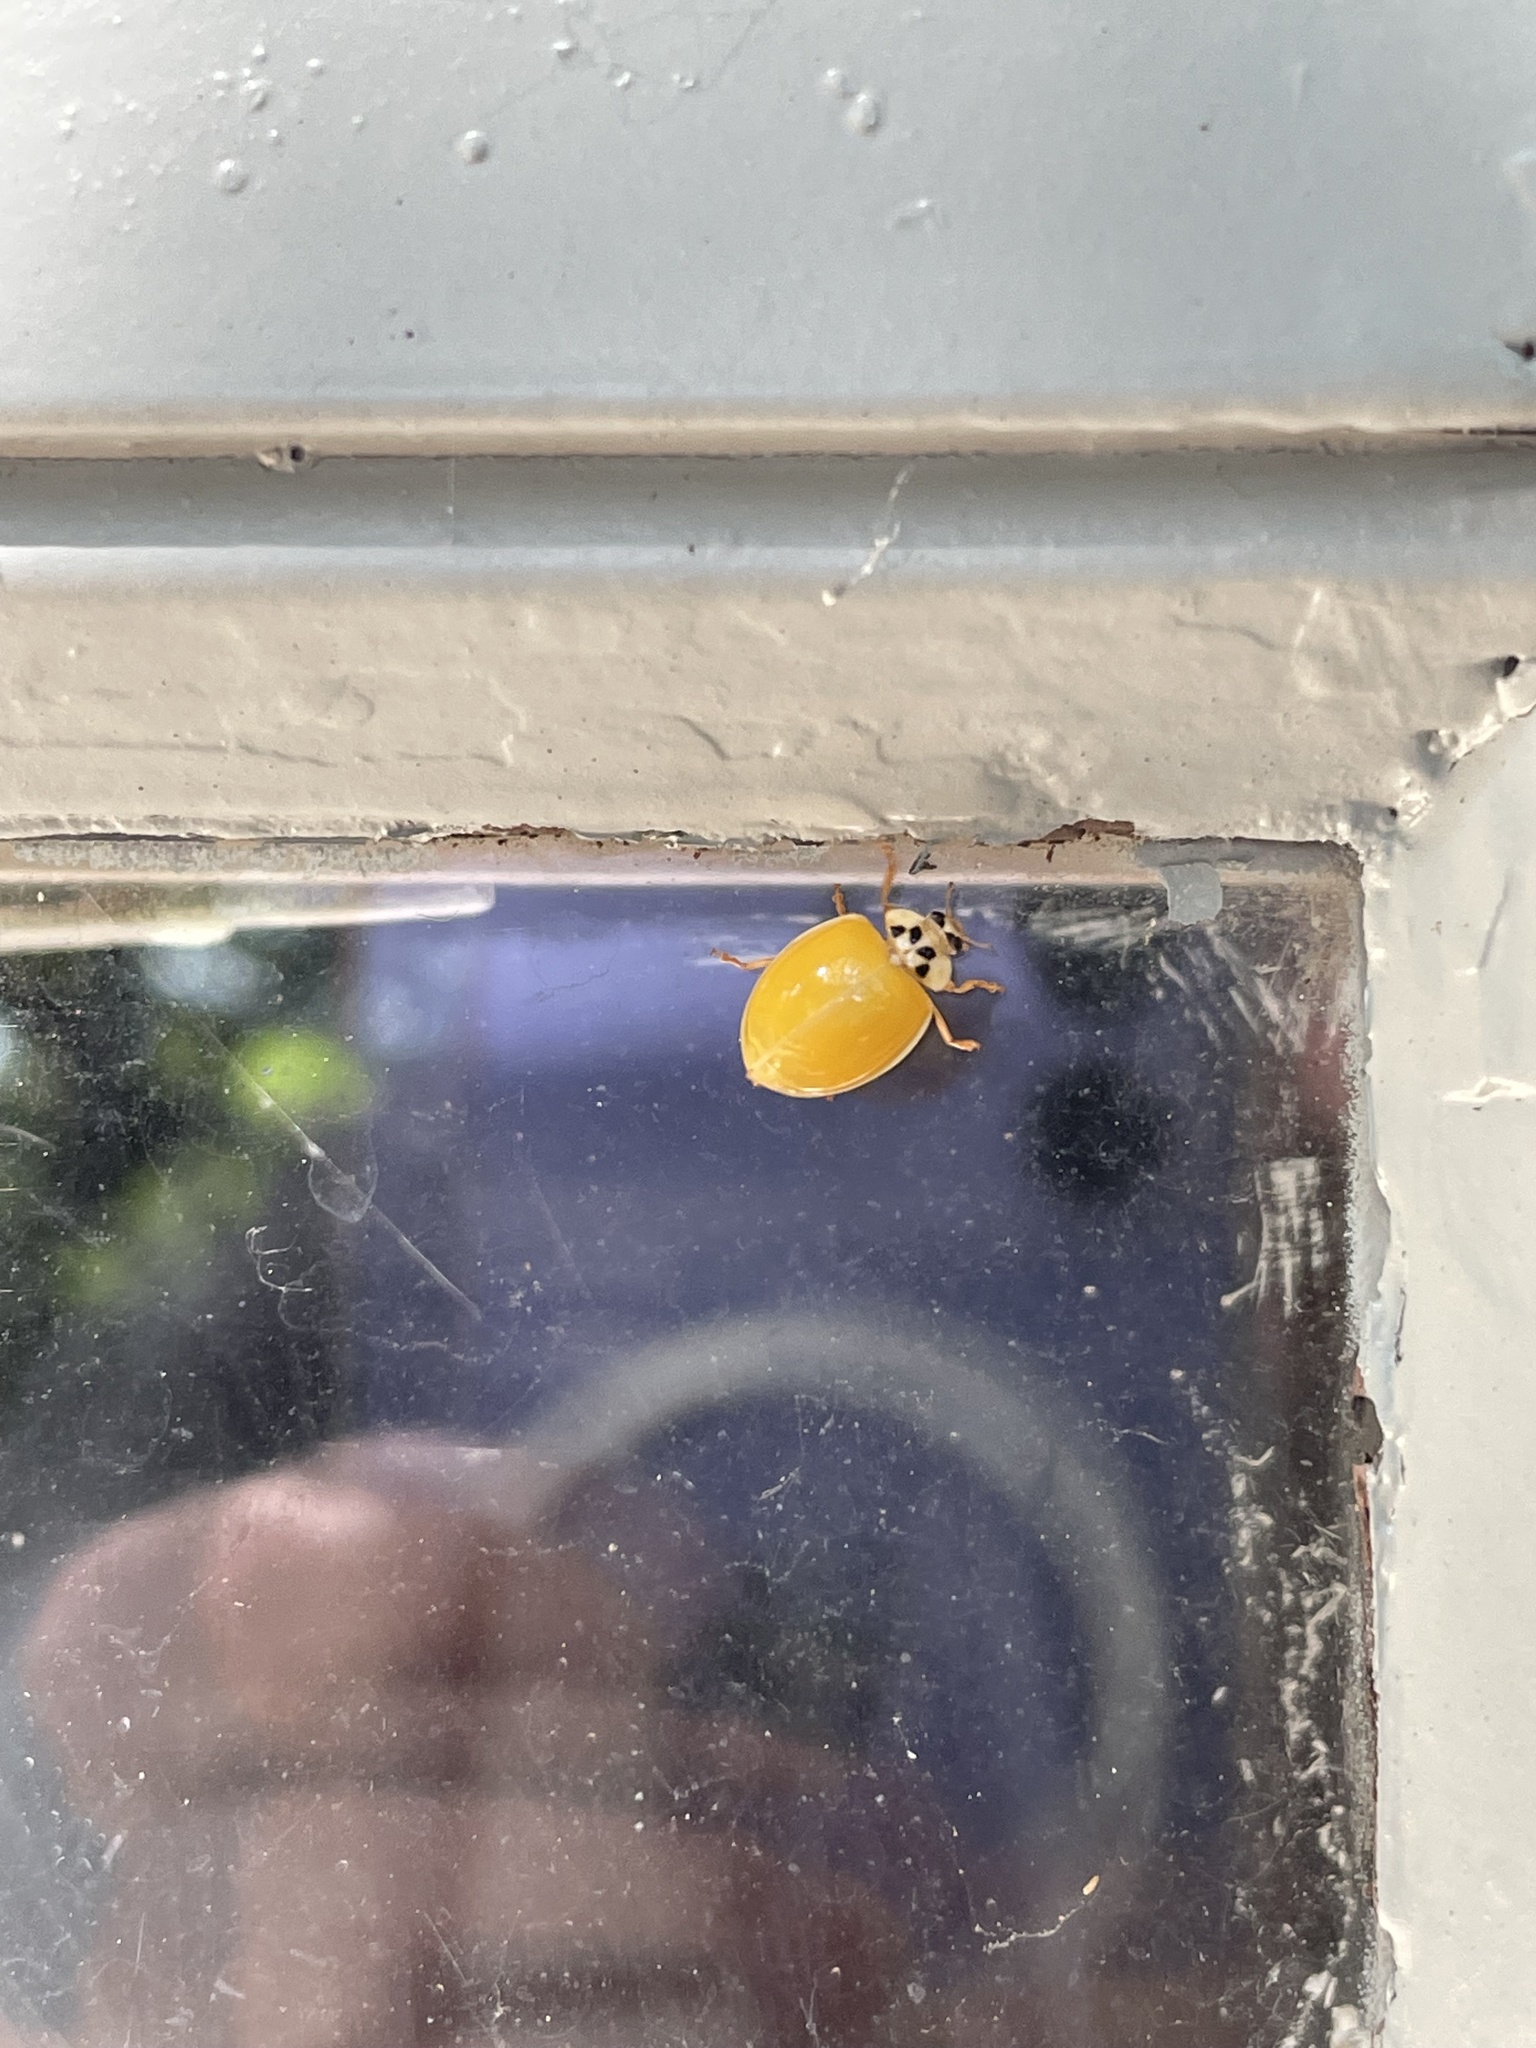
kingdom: Animalia
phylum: Arthropoda
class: Insecta
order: Coleoptera
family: Coccinellidae
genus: Harmonia
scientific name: Harmonia axyridis
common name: Harlequin ladybird
